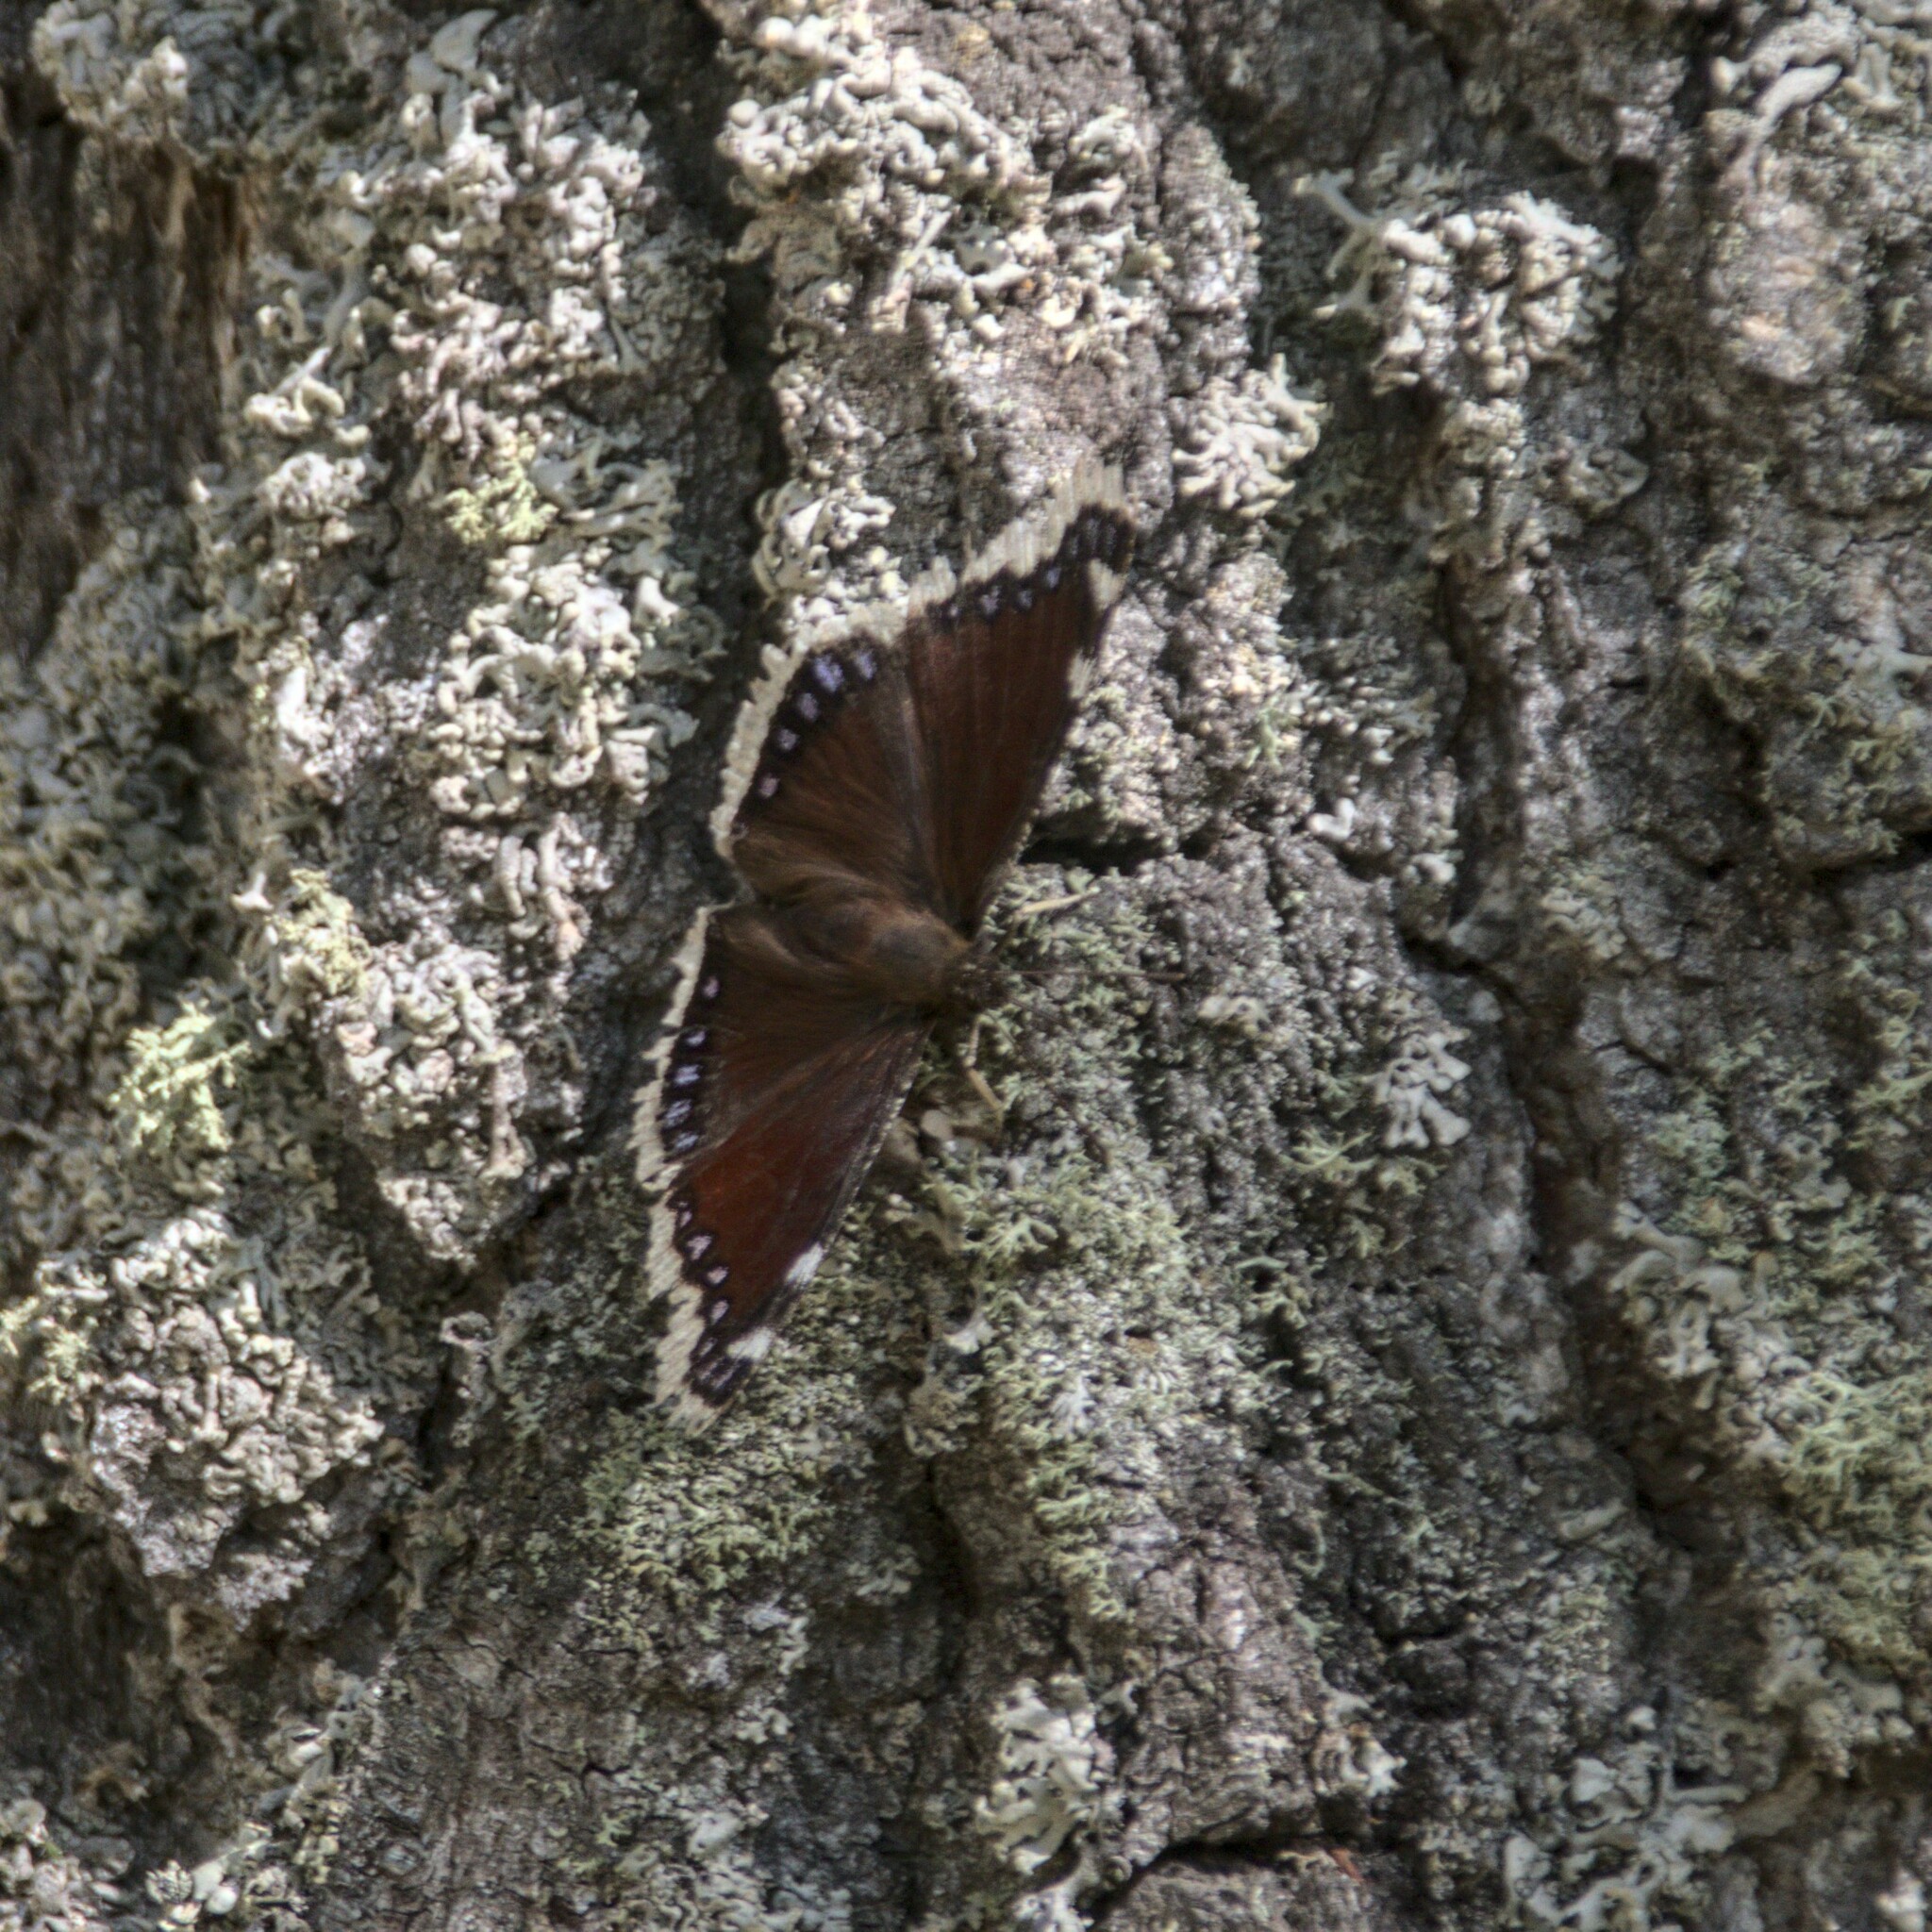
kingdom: Animalia
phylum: Arthropoda
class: Insecta
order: Lepidoptera
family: Nymphalidae
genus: Nymphalis
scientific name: Nymphalis antiopa
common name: Camberwell beauty
